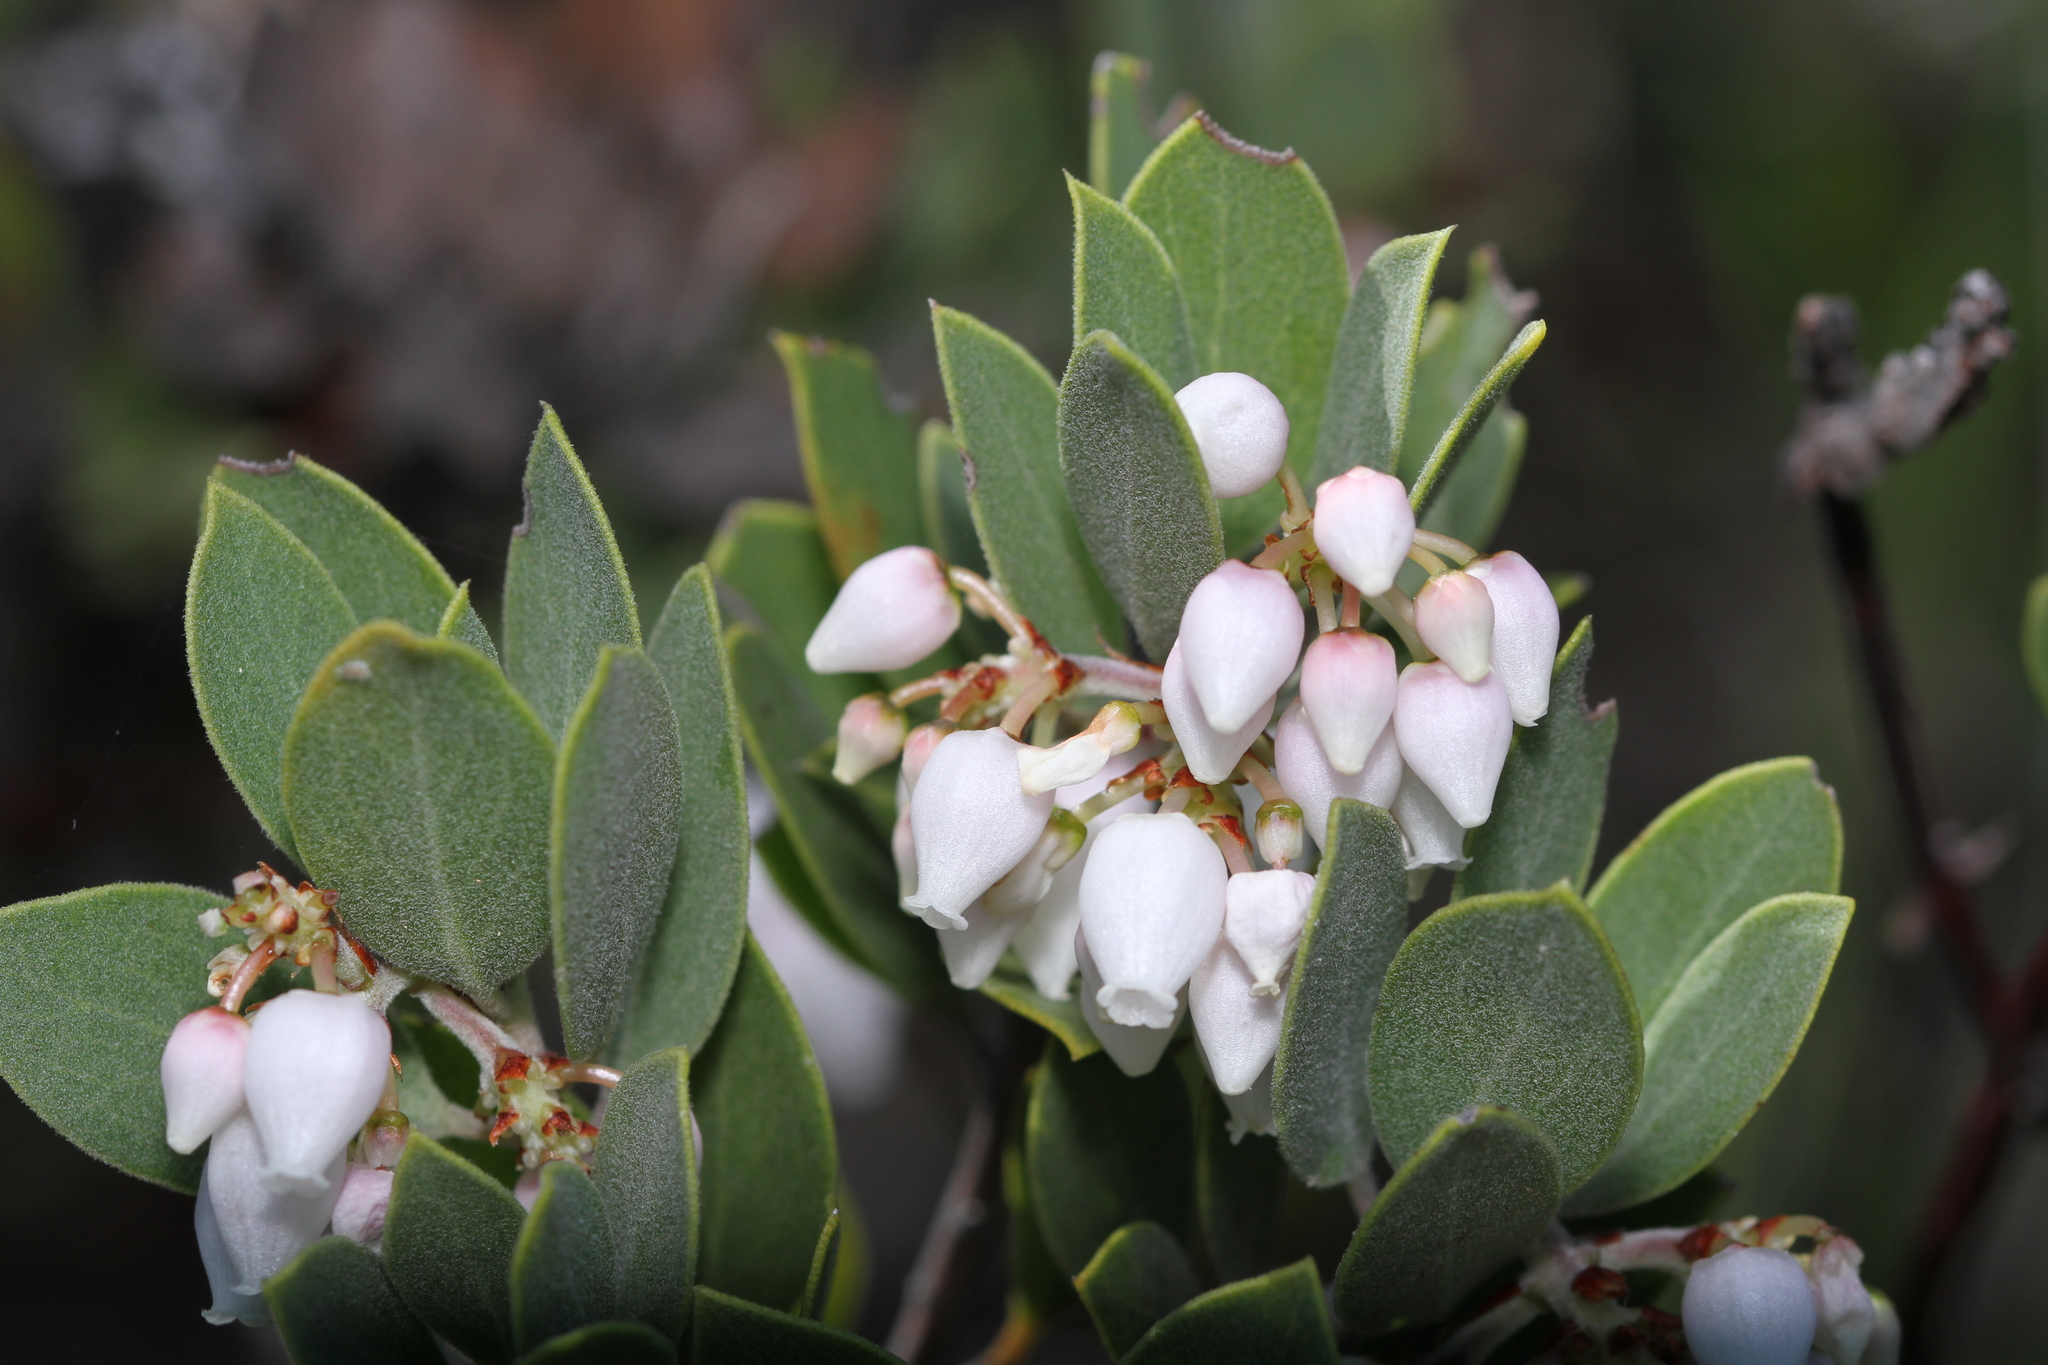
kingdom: Plantae
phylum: Tracheophyta
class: Magnoliopsida
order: Ericales
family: Ericaceae
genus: Arctostaphylos
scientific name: Arctostaphylos montana
